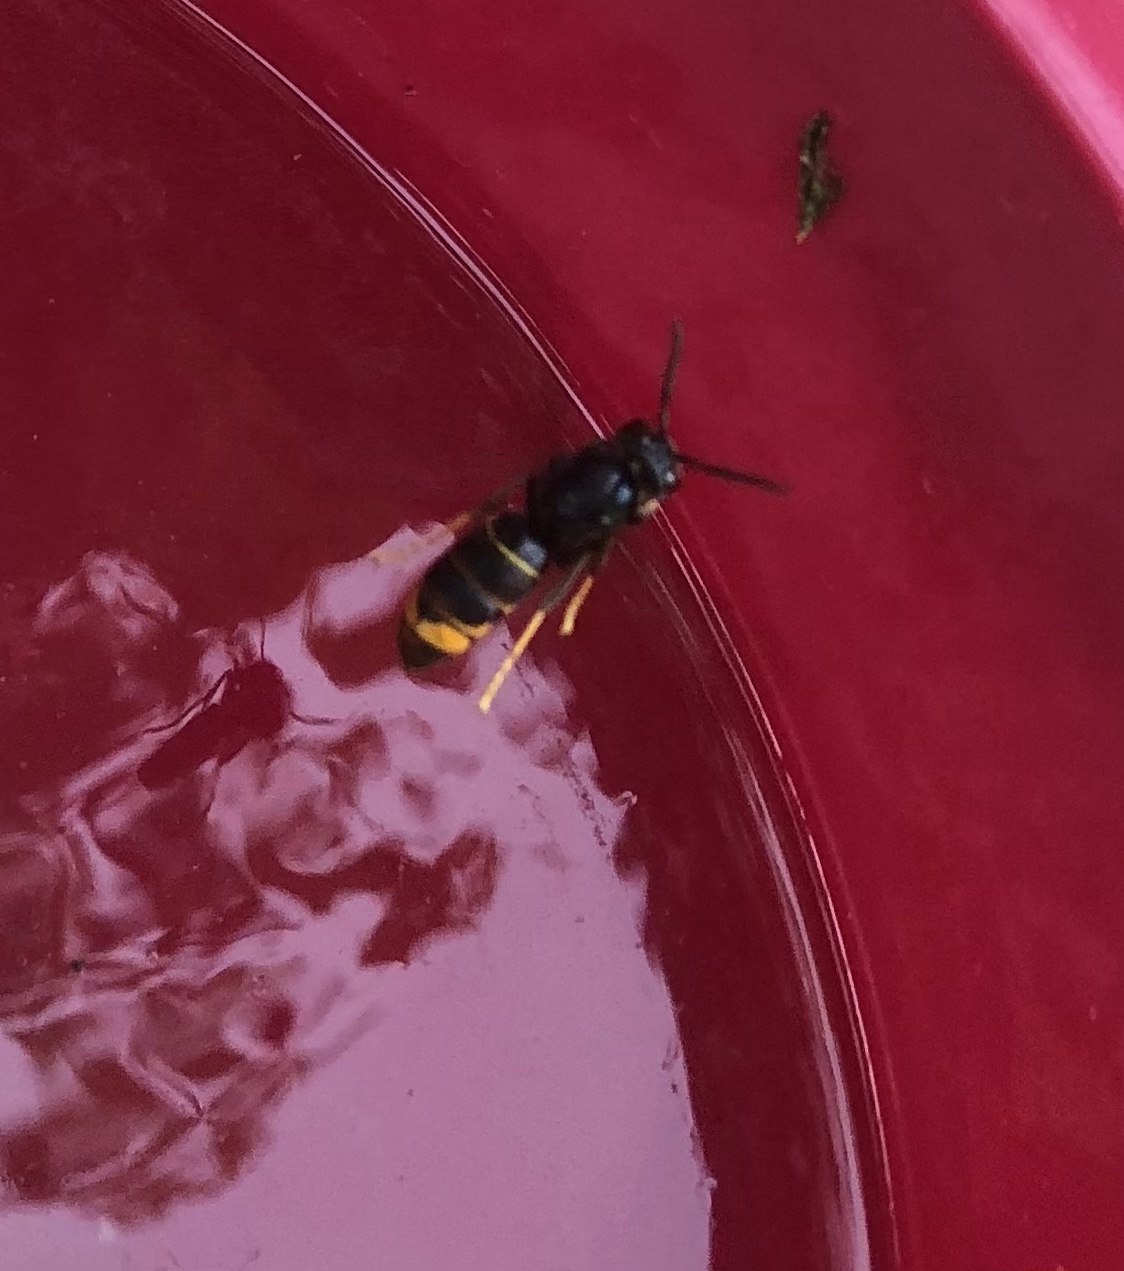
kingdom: Animalia
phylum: Arthropoda
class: Insecta
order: Hymenoptera
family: Vespidae
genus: Vespa
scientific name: Vespa velutina
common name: Asian hornet
